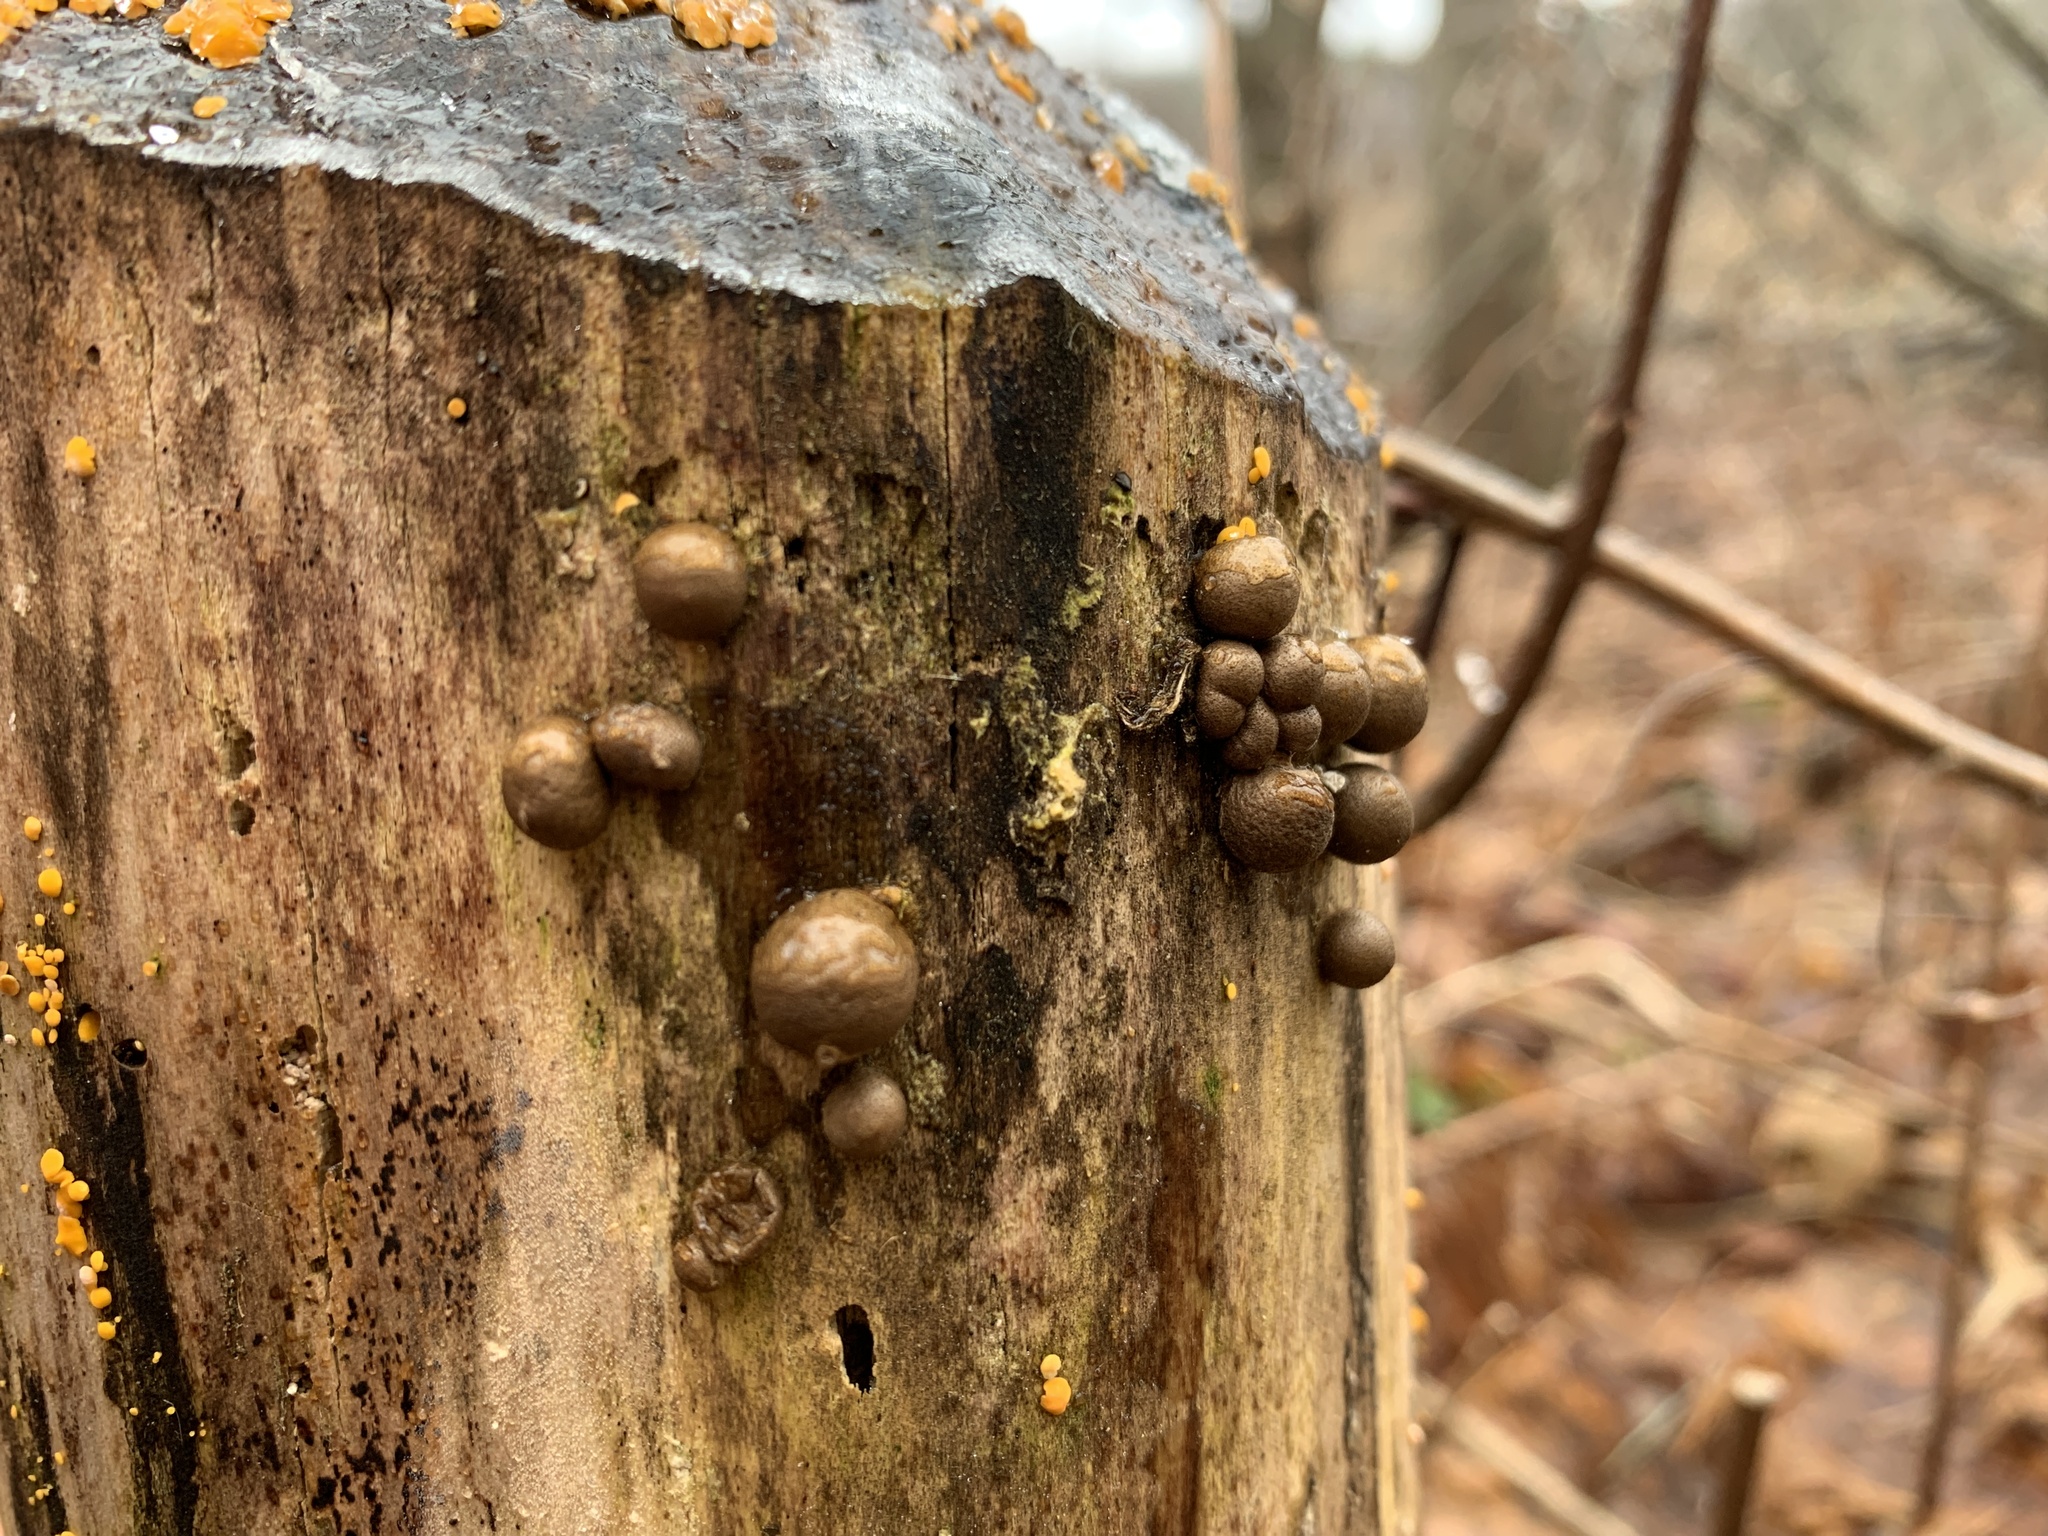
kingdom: Protozoa
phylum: Mycetozoa
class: Myxomycetes
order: Cribrariales
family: Tubiferaceae
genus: Lycogala
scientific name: Lycogala epidendrum
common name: Wolf's milk
